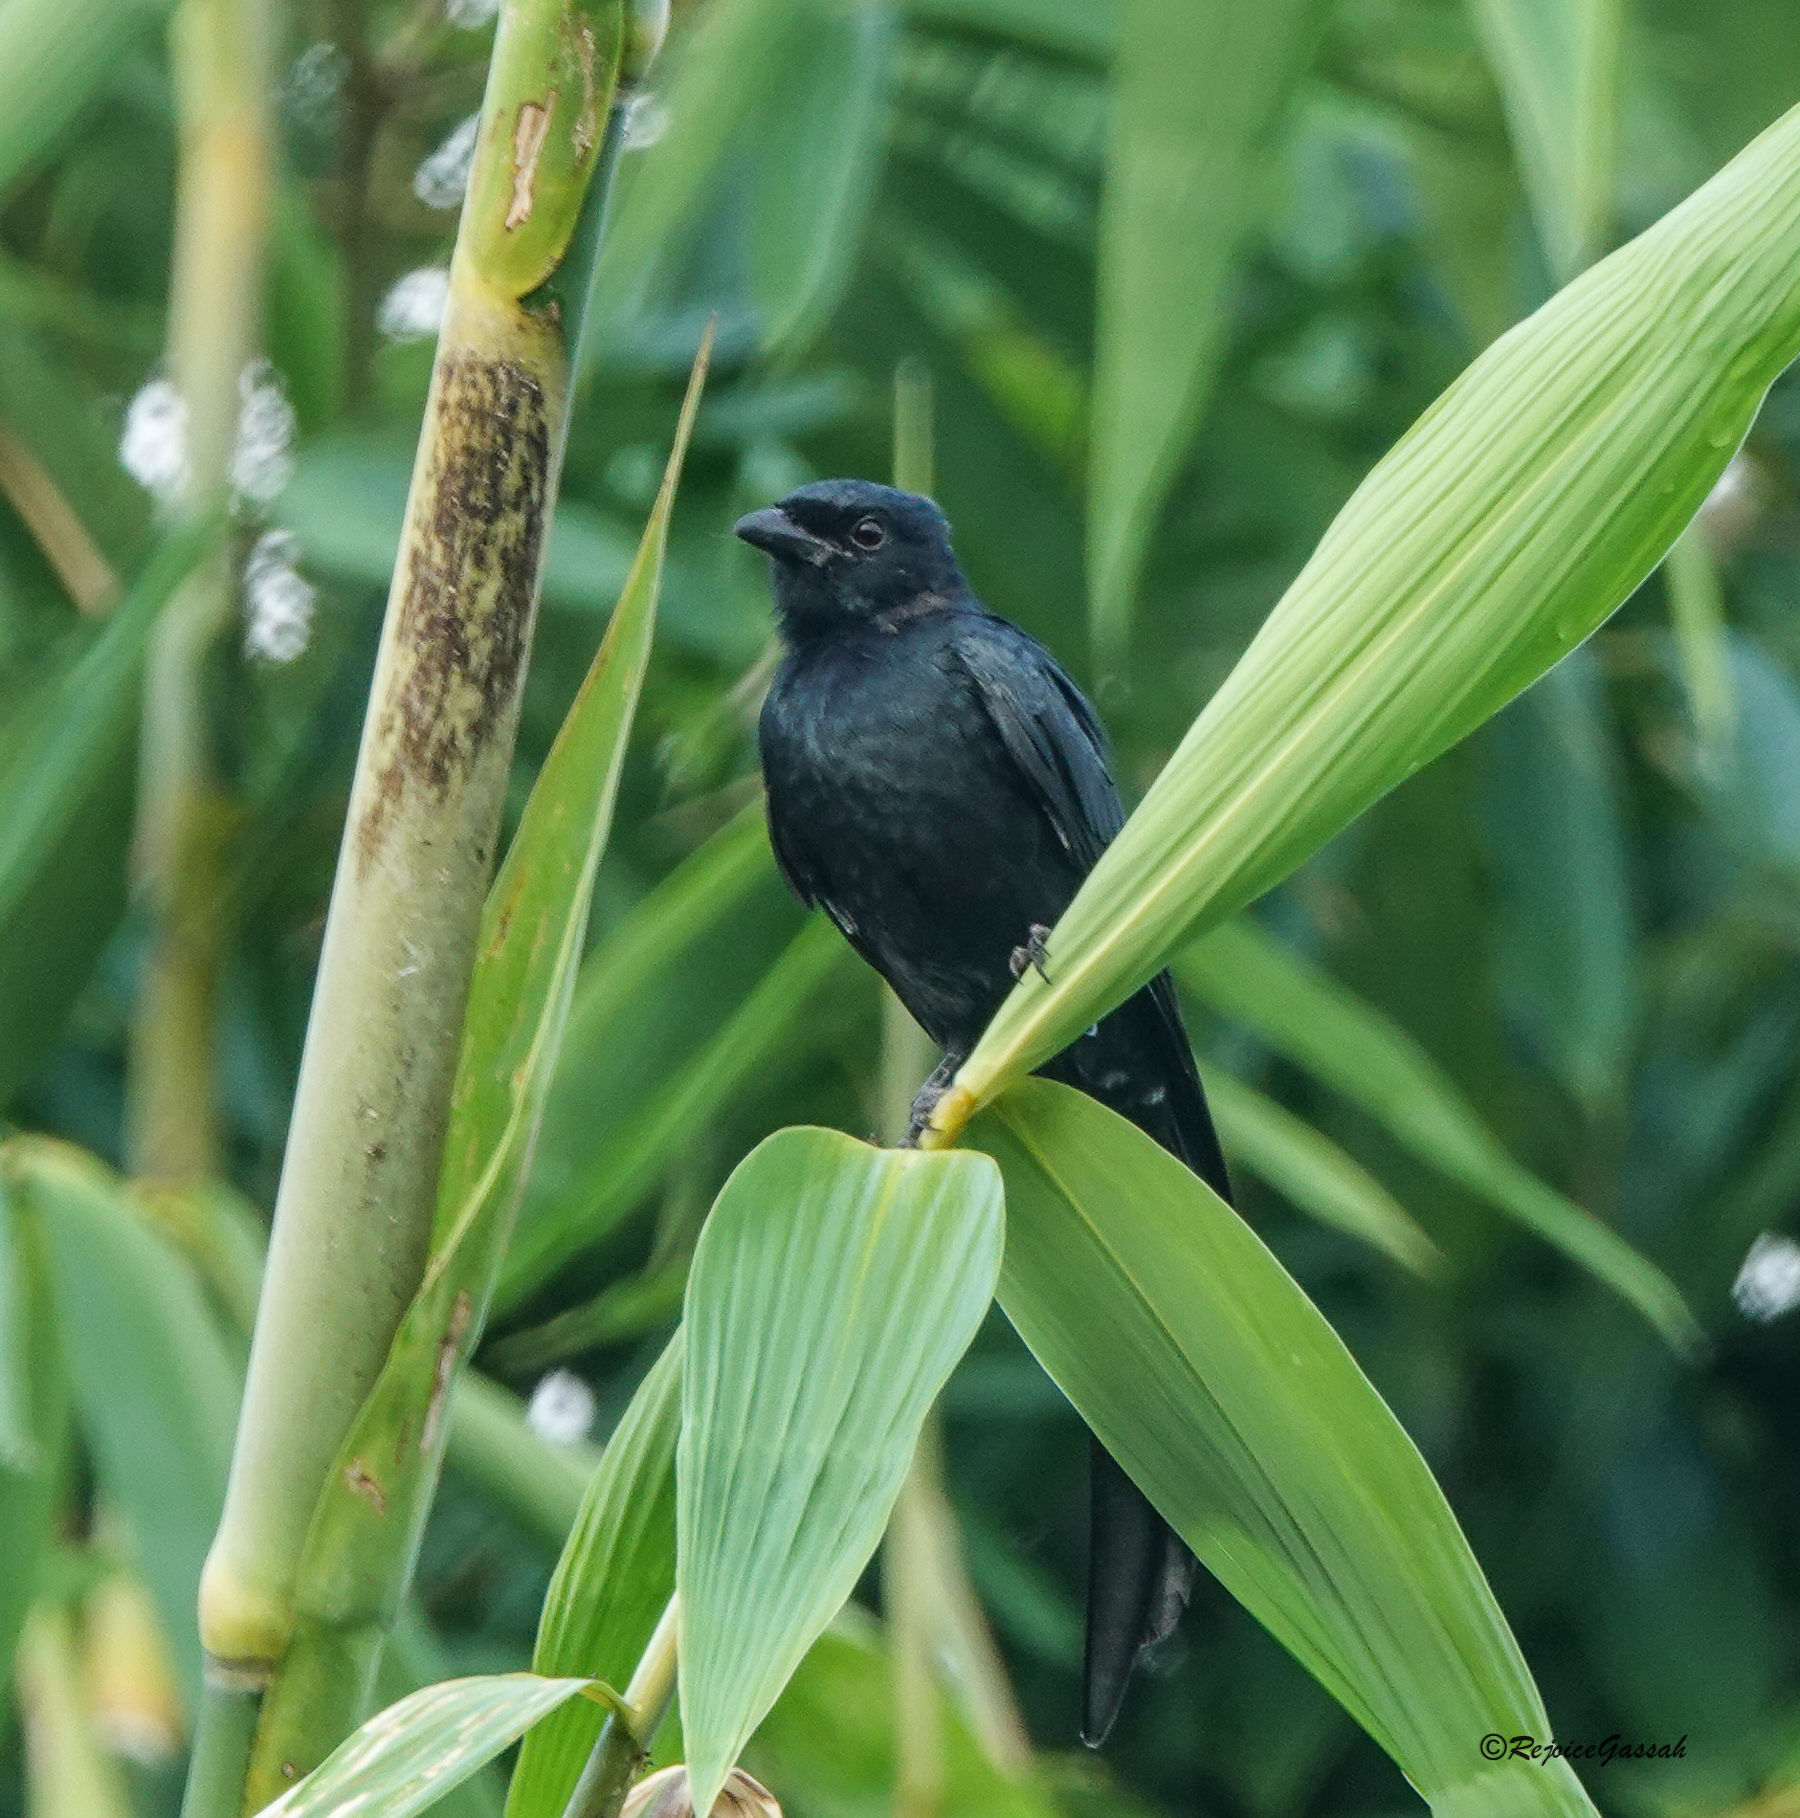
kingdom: Animalia
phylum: Chordata
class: Aves
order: Passeriformes
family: Dicruridae
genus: Dicrurus
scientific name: Dicrurus macrocercus
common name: Black drongo
